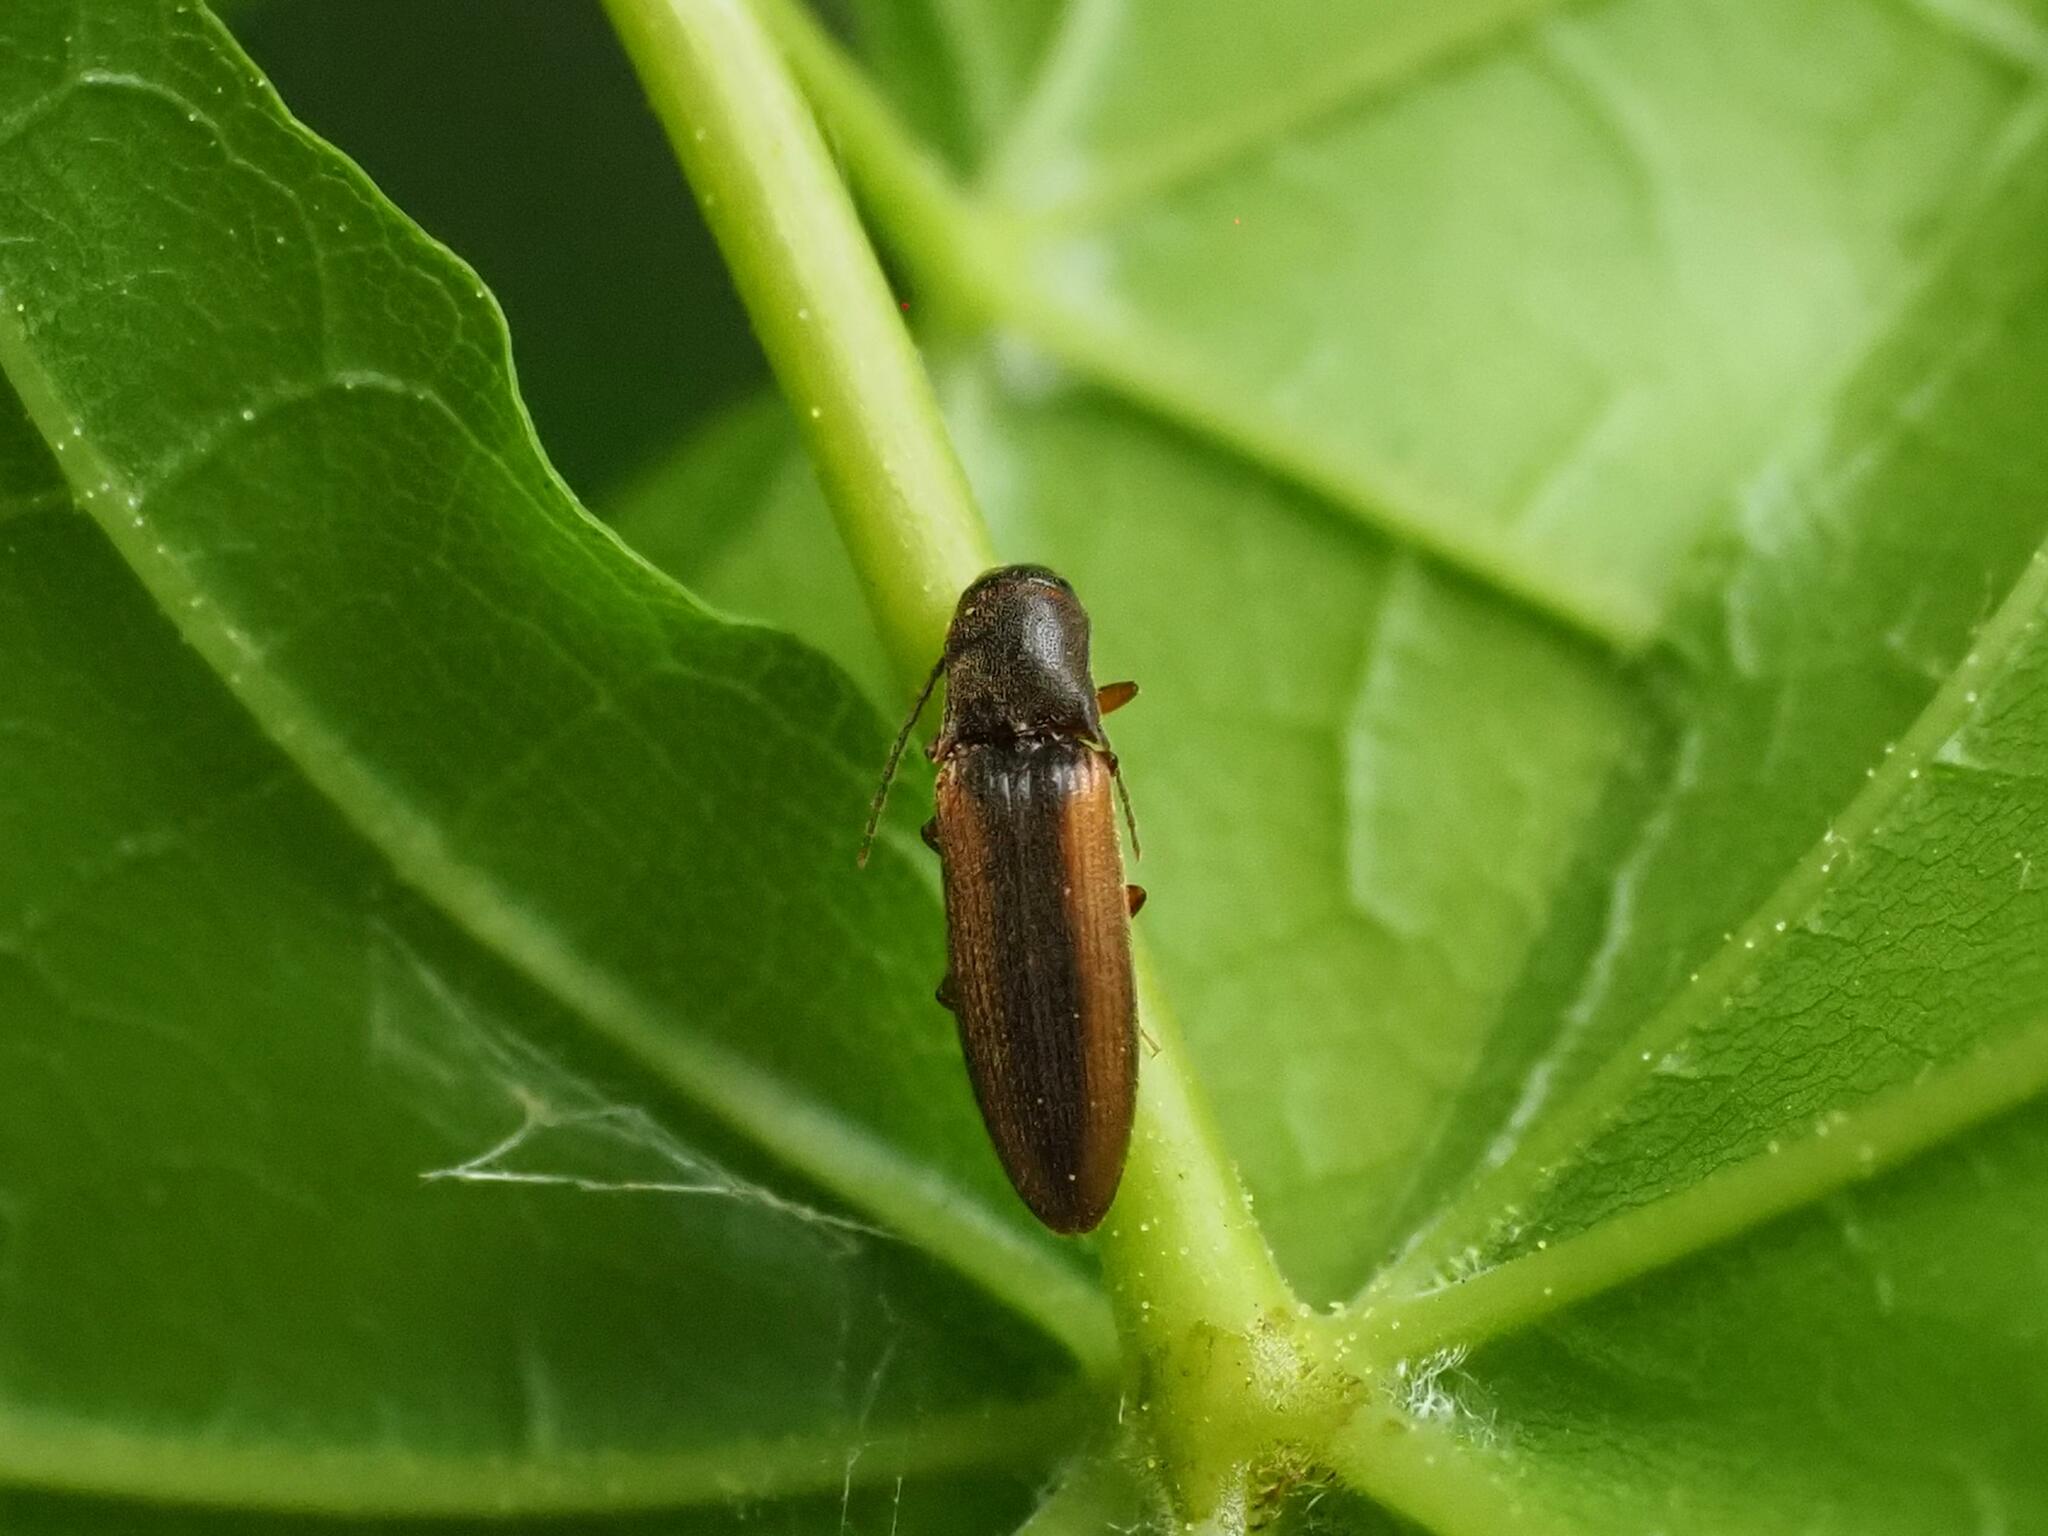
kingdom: Animalia
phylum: Arthropoda
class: Insecta
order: Coleoptera
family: Elateridae
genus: Dalopius
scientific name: Dalopius marginatus
